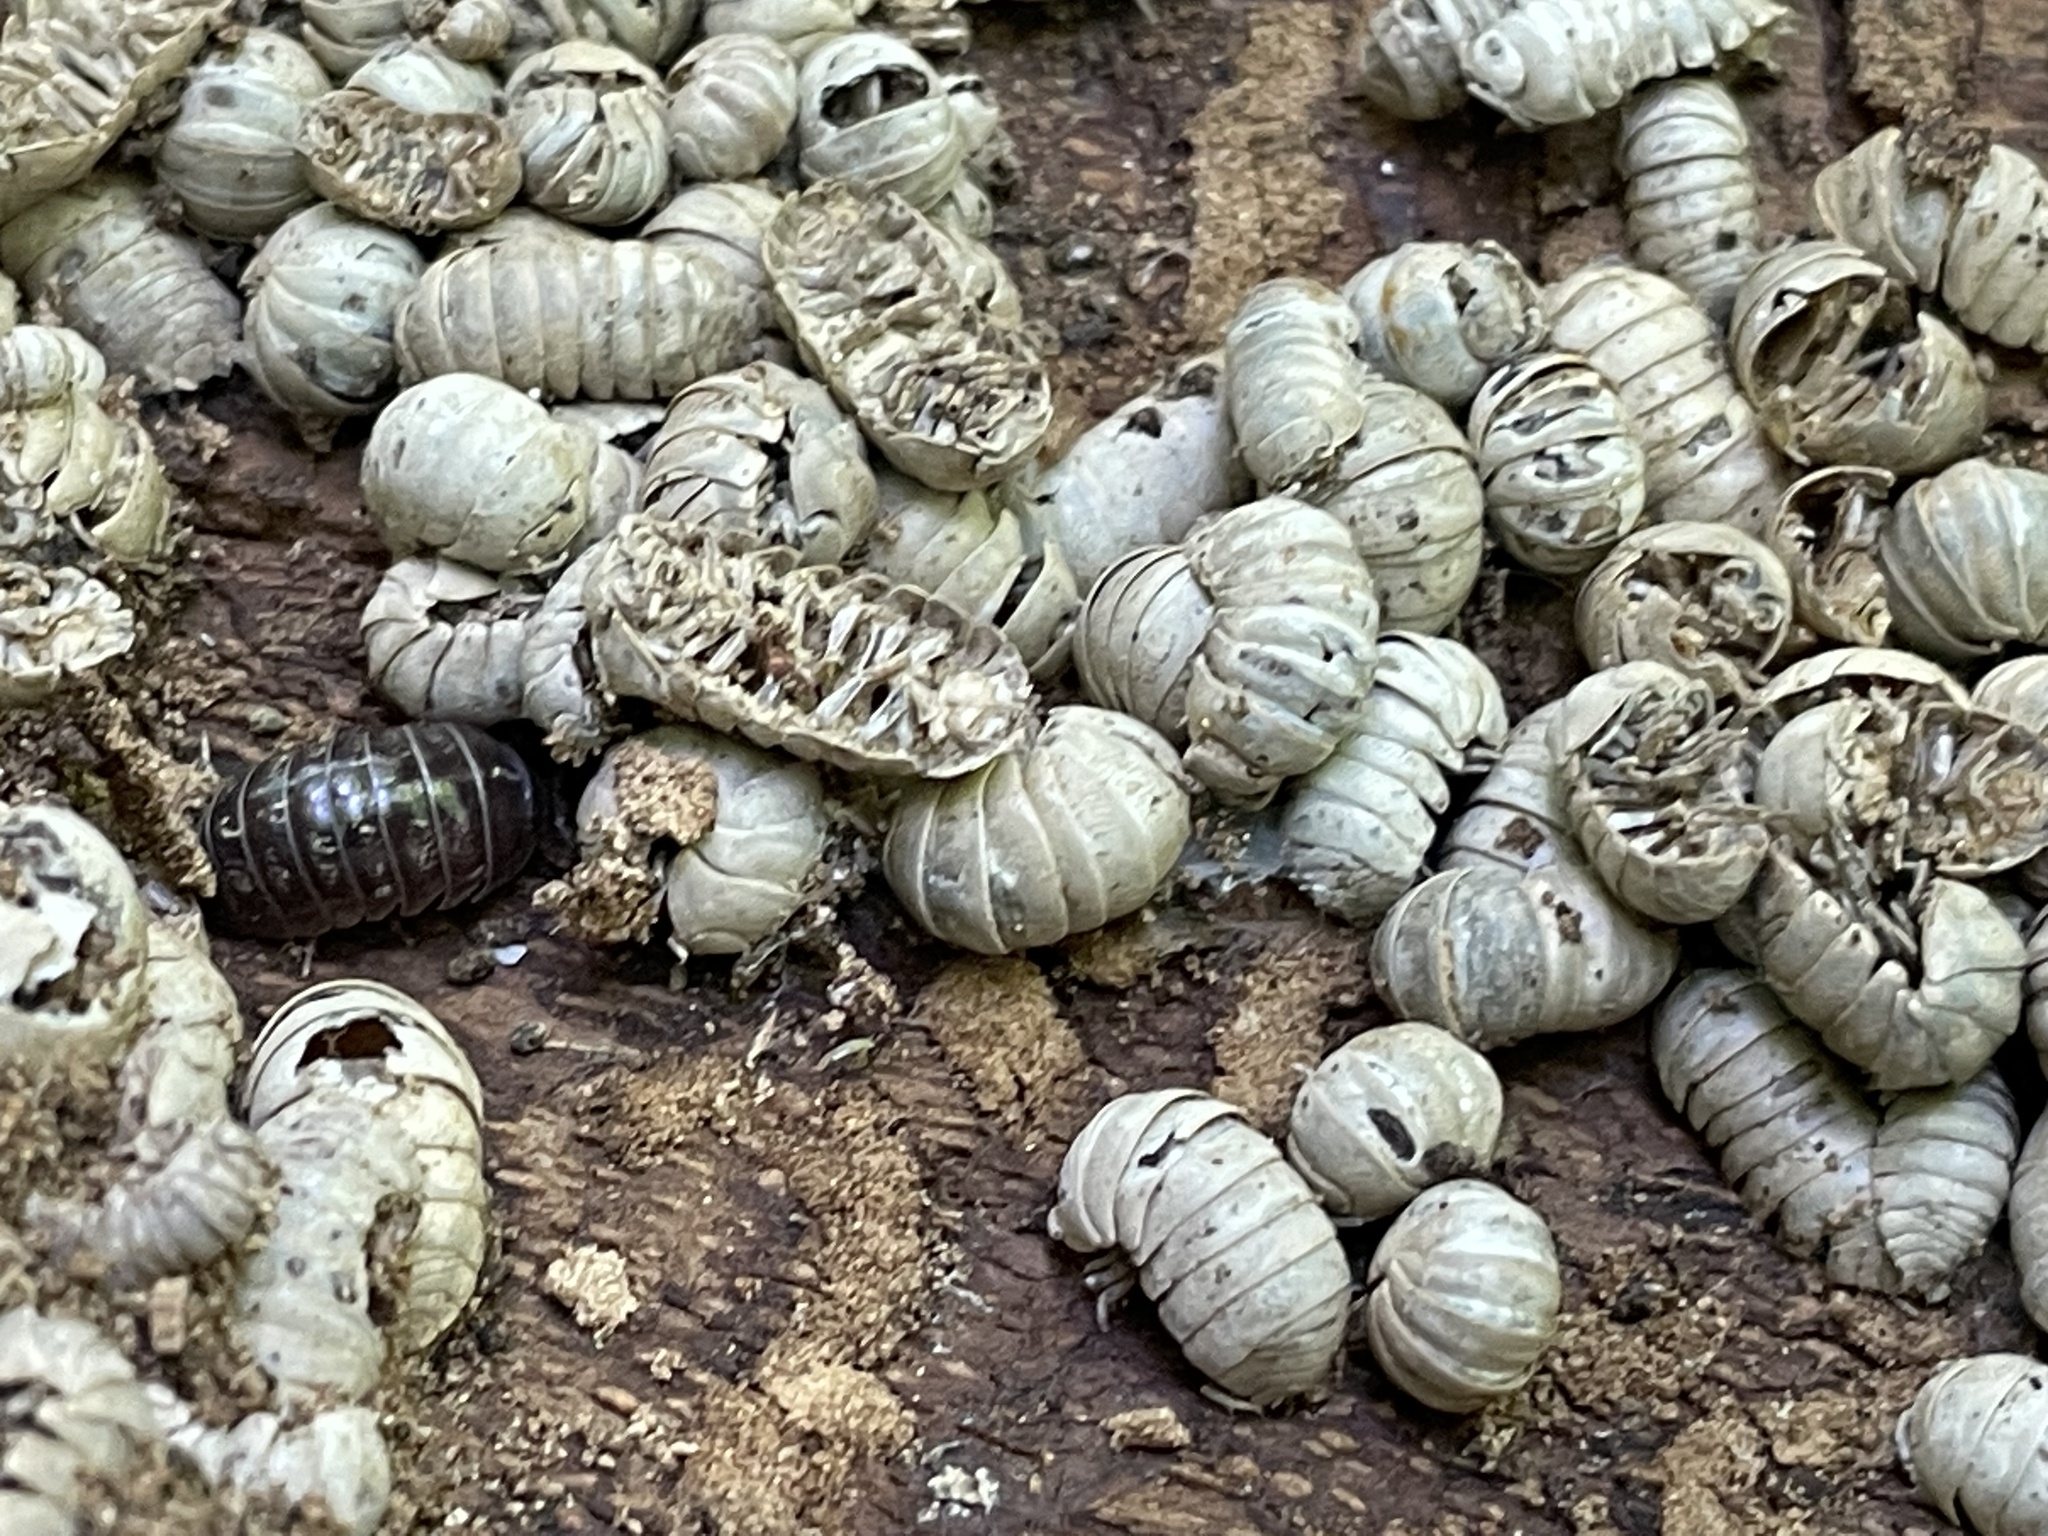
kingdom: Animalia
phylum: Arthropoda
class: Malacostraca
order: Isopoda
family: Armadillidiidae
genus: Armadillidium
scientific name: Armadillidium vulgare
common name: Common pill woodlouse
